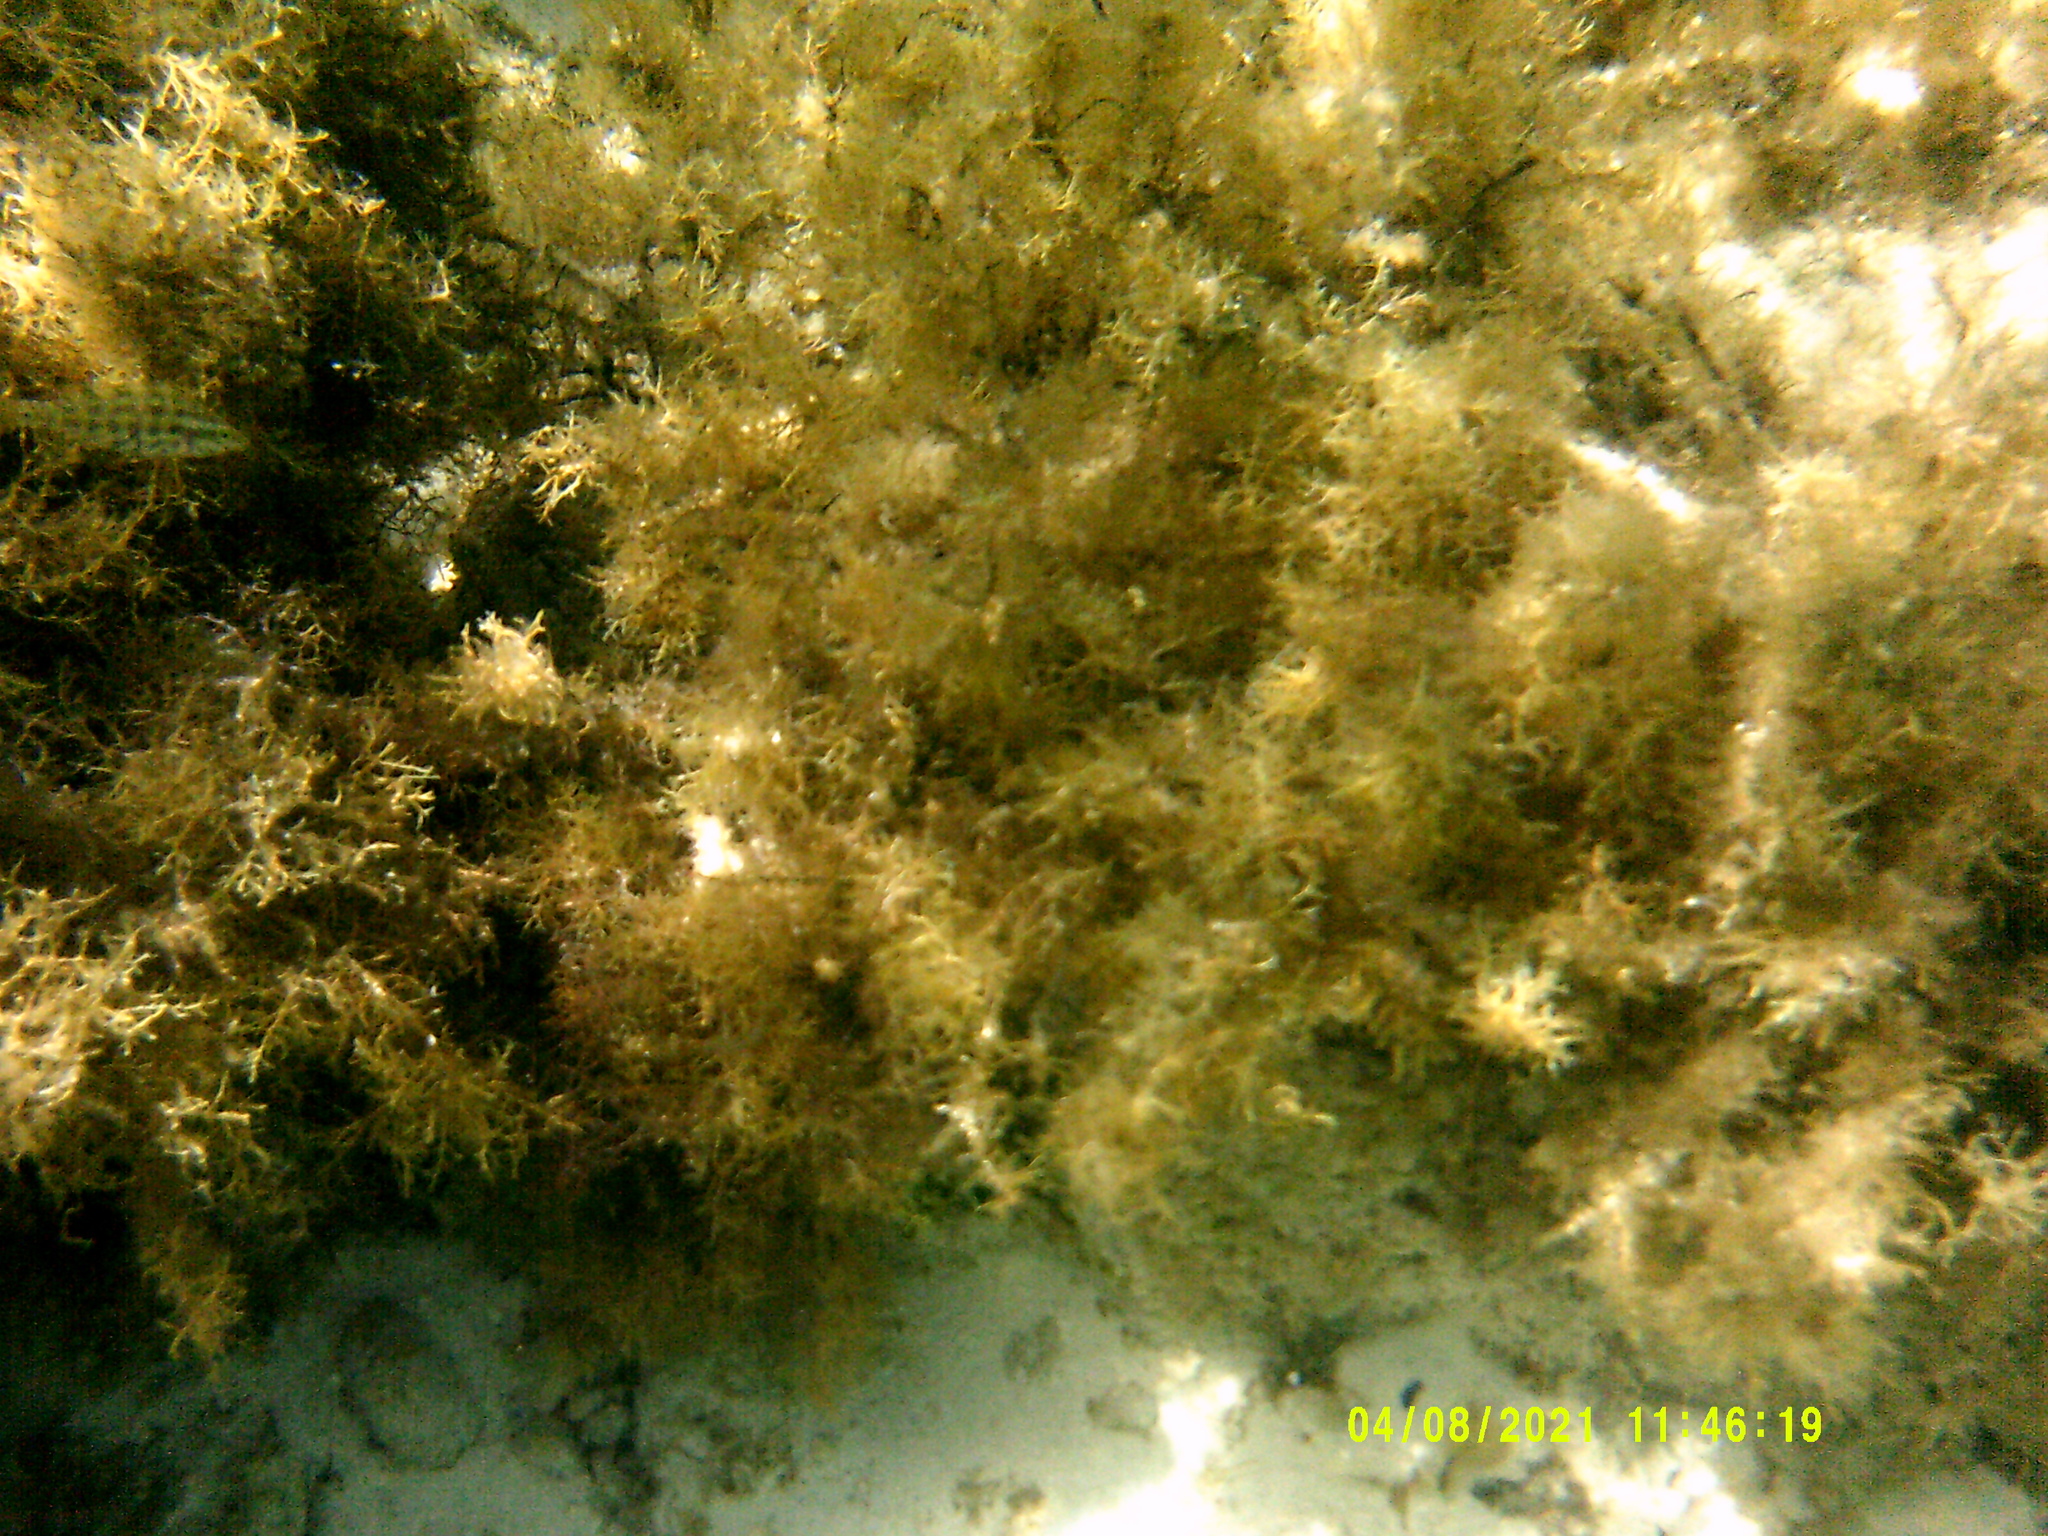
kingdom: Animalia
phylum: Chordata
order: Perciformes
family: Labridae
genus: Symphodus
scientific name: Symphodus roissali
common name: Five-spotted wrasse
